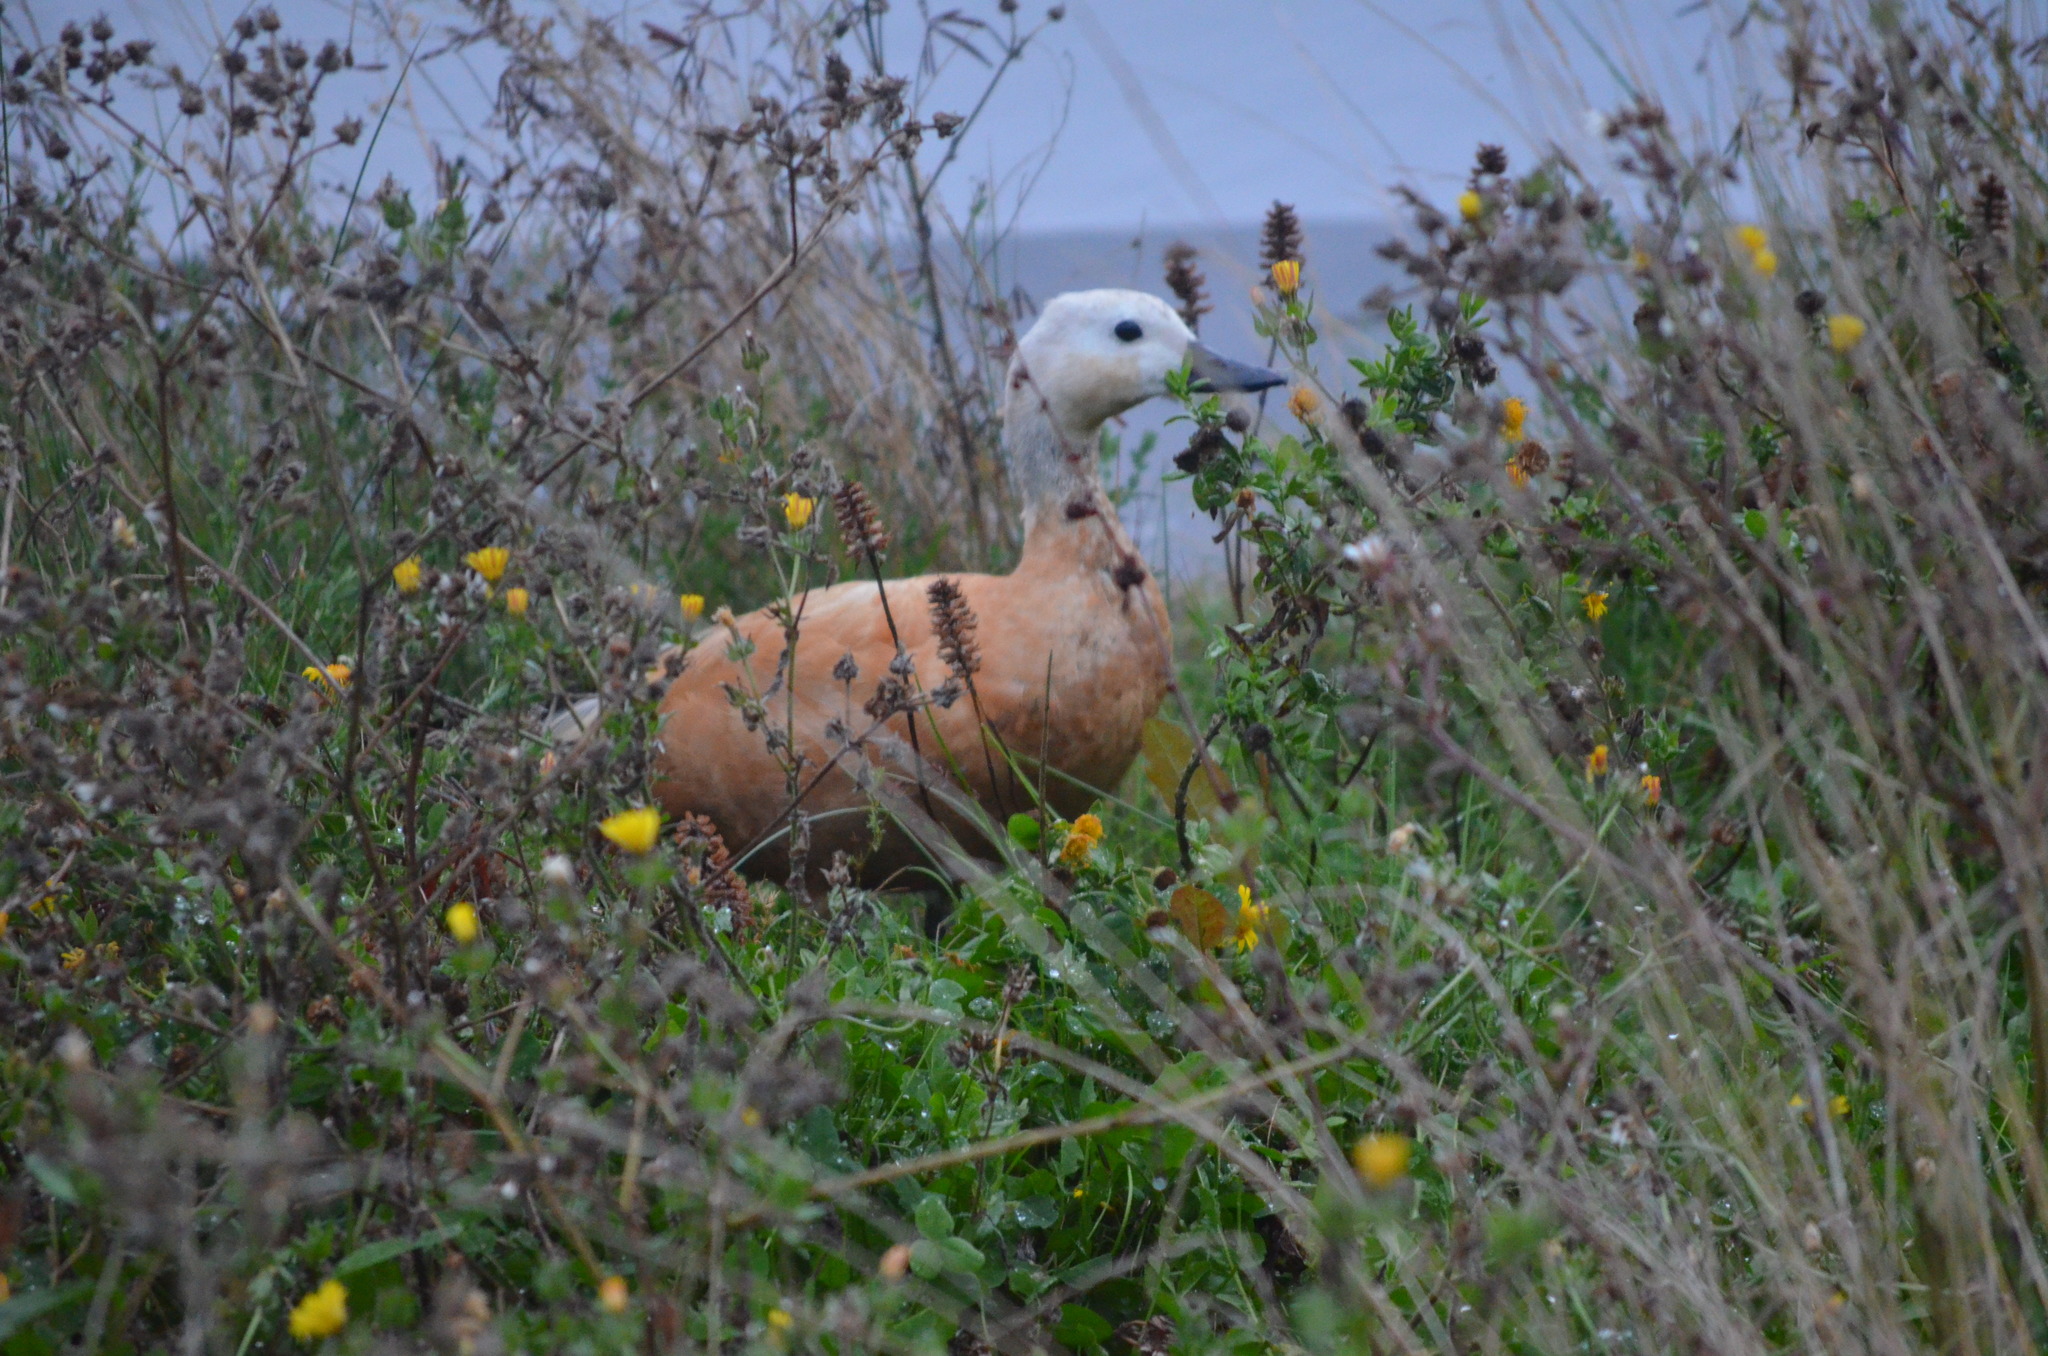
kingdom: Animalia
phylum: Chordata
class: Aves
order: Anseriformes
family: Anatidae
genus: Tadorna
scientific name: Tadorna ferruginea
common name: Ruddy shelduck
